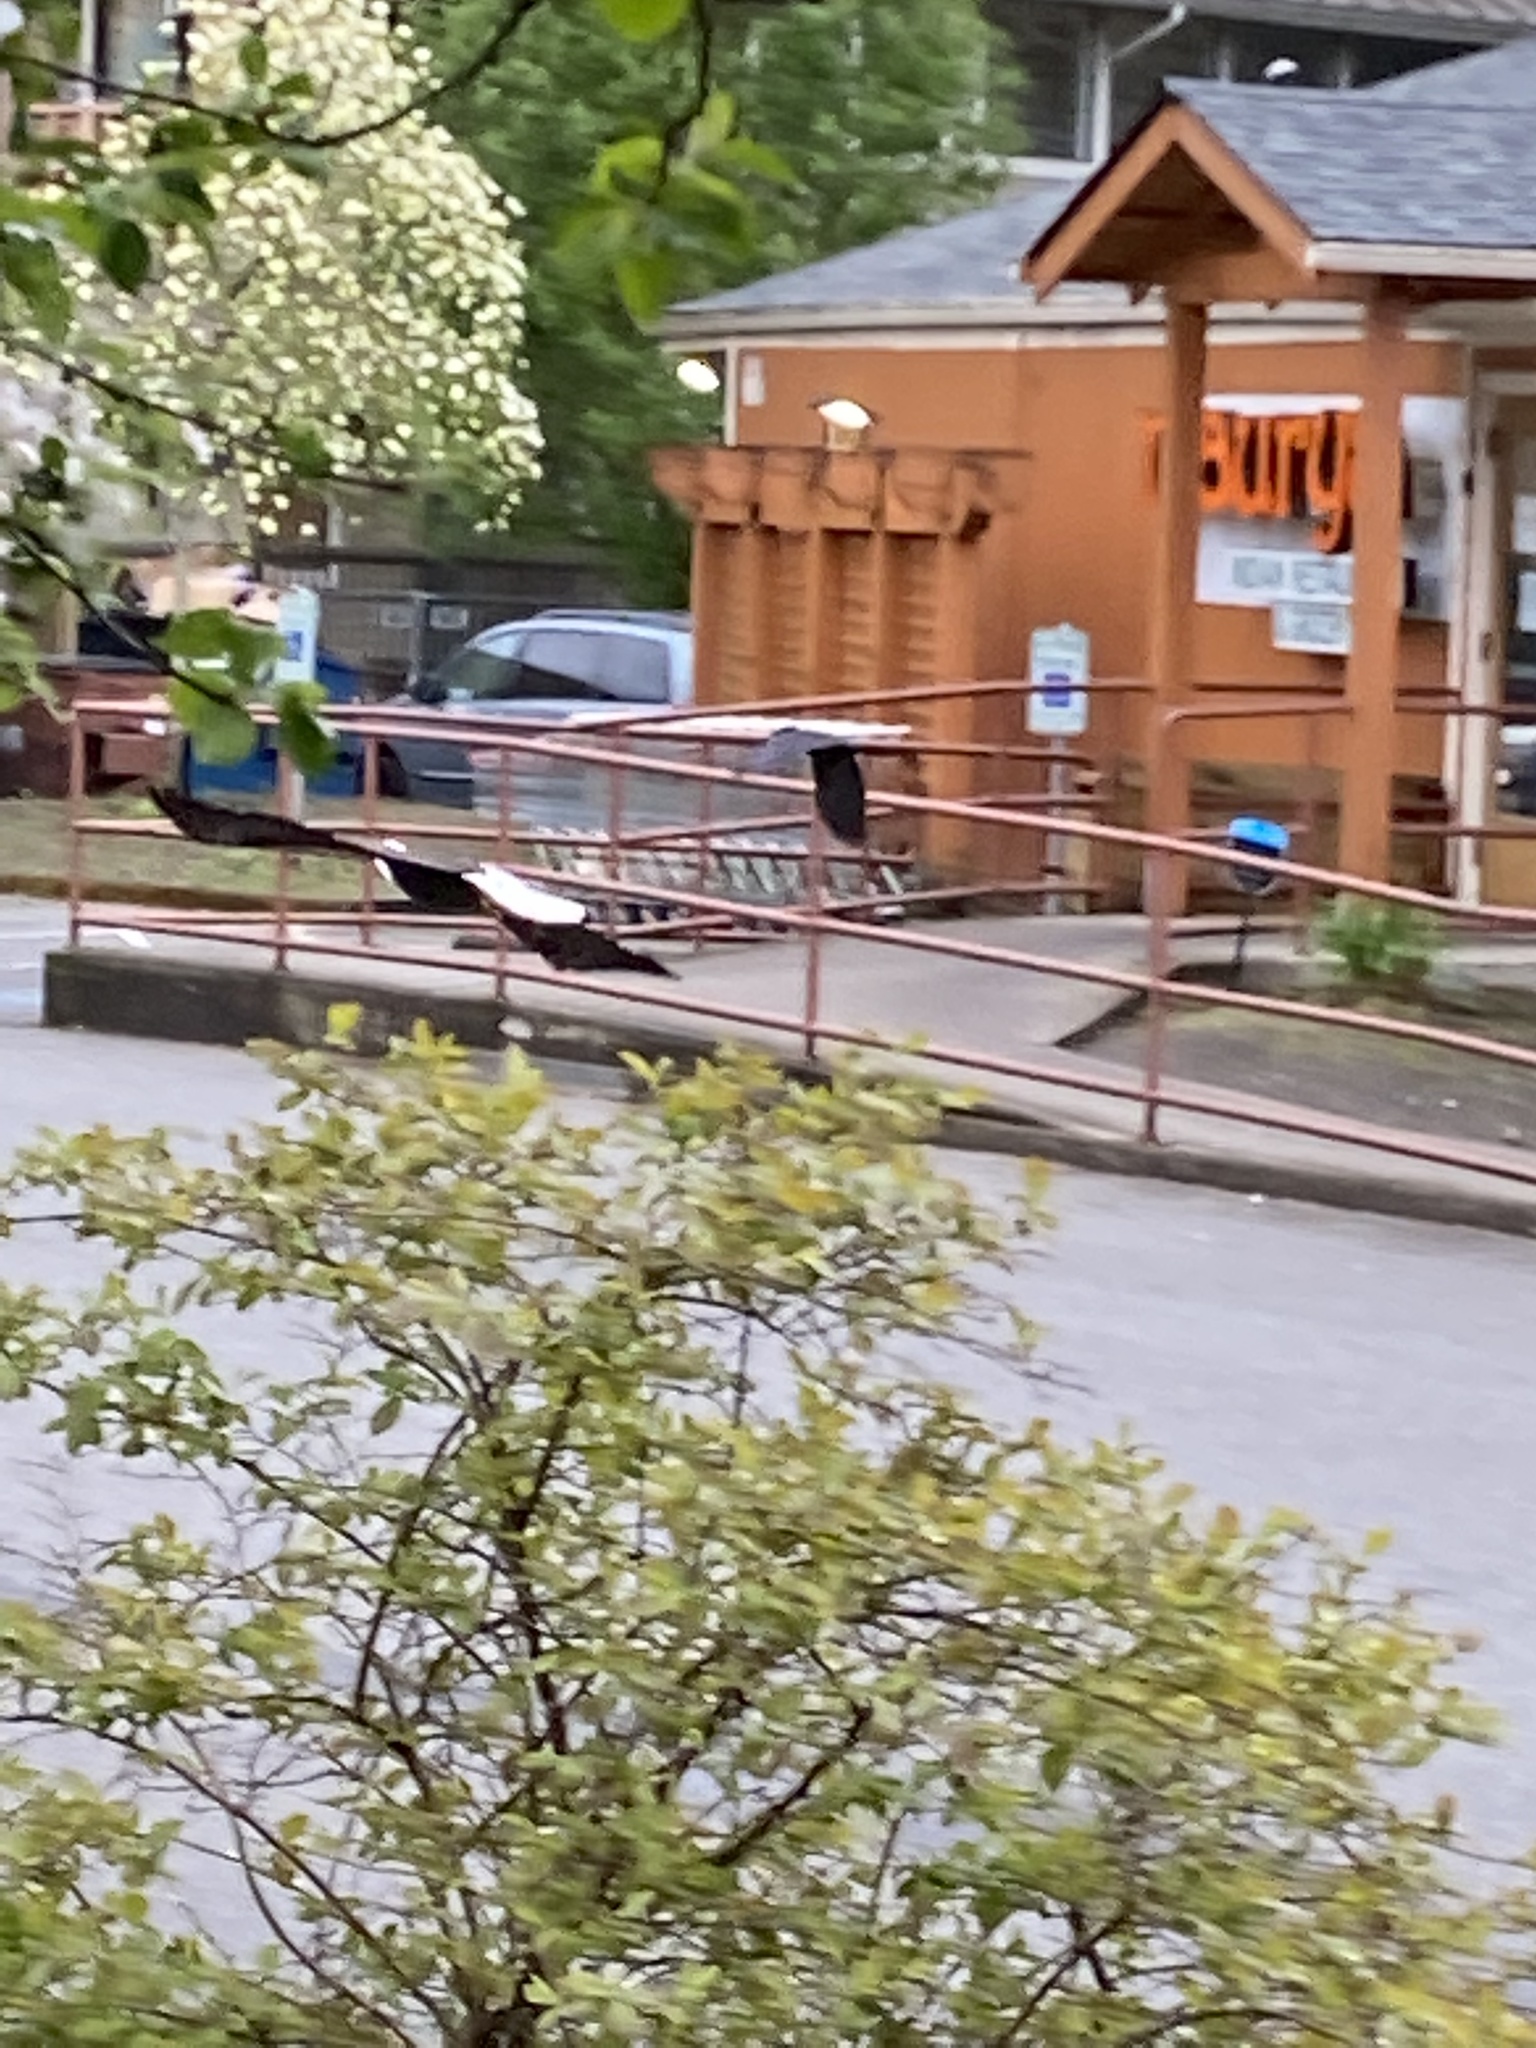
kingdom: Animalia
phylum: Chordata
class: Aves
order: Accipitriformes
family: Accipitridae
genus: Haliaeetus
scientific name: Haliaeetus leucocephalus
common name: Bald eagle
